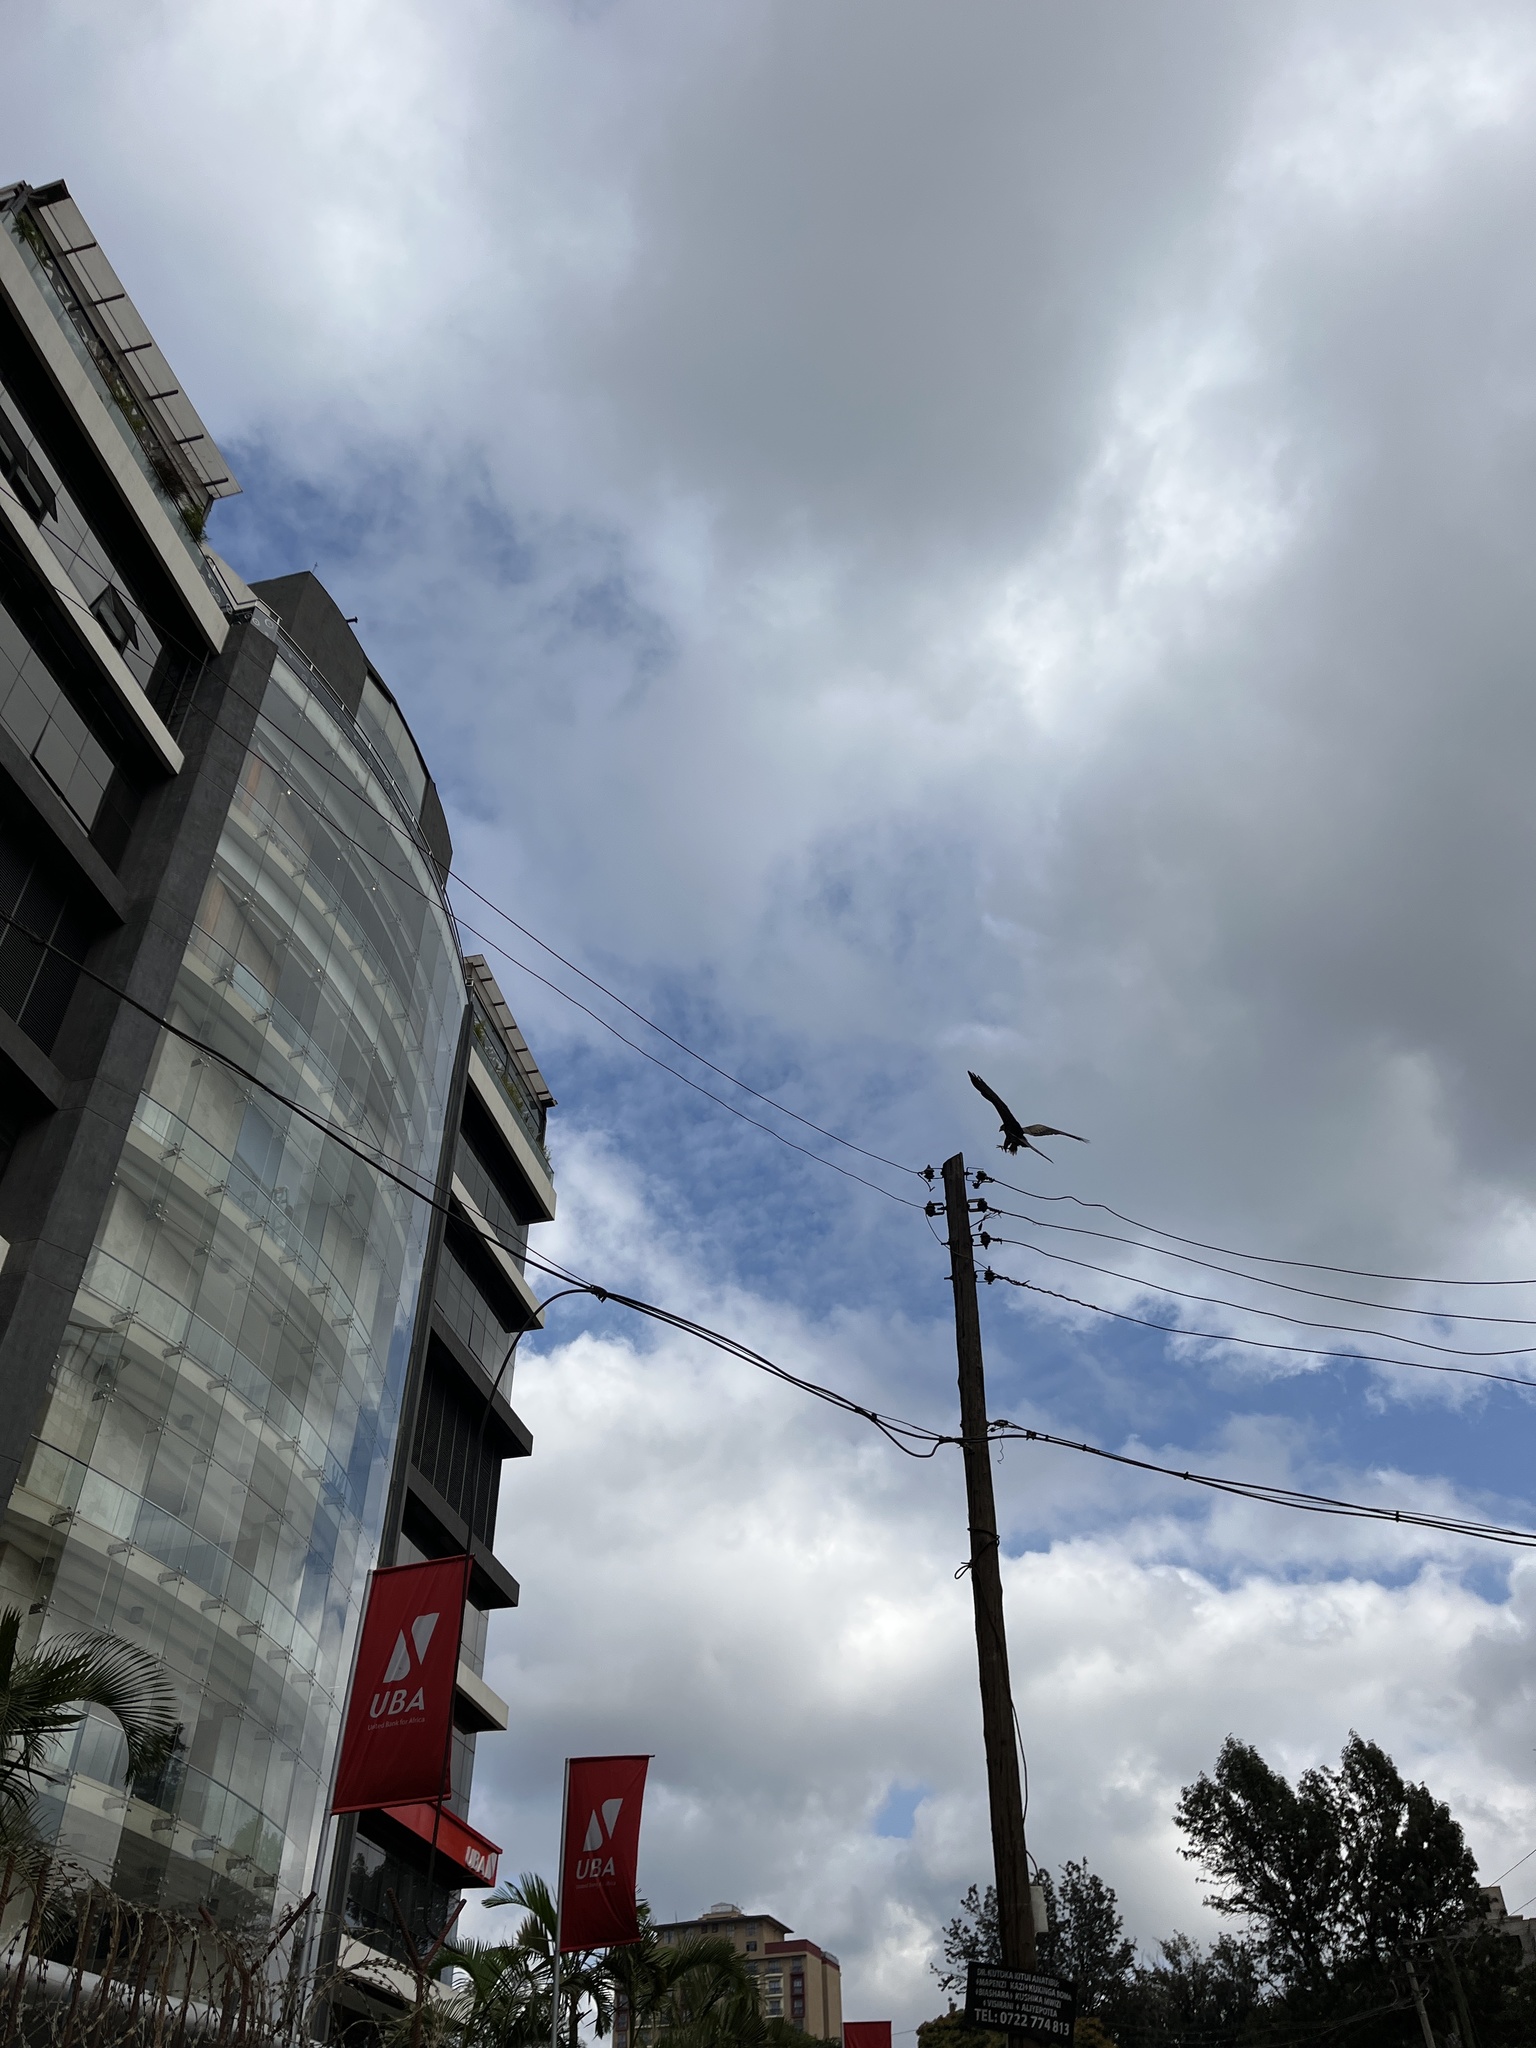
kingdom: Animalia
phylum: Chordata
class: Aves
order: Accipitriformes
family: Accipitridae
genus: Milvus
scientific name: Milvus migrans
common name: Black kite
